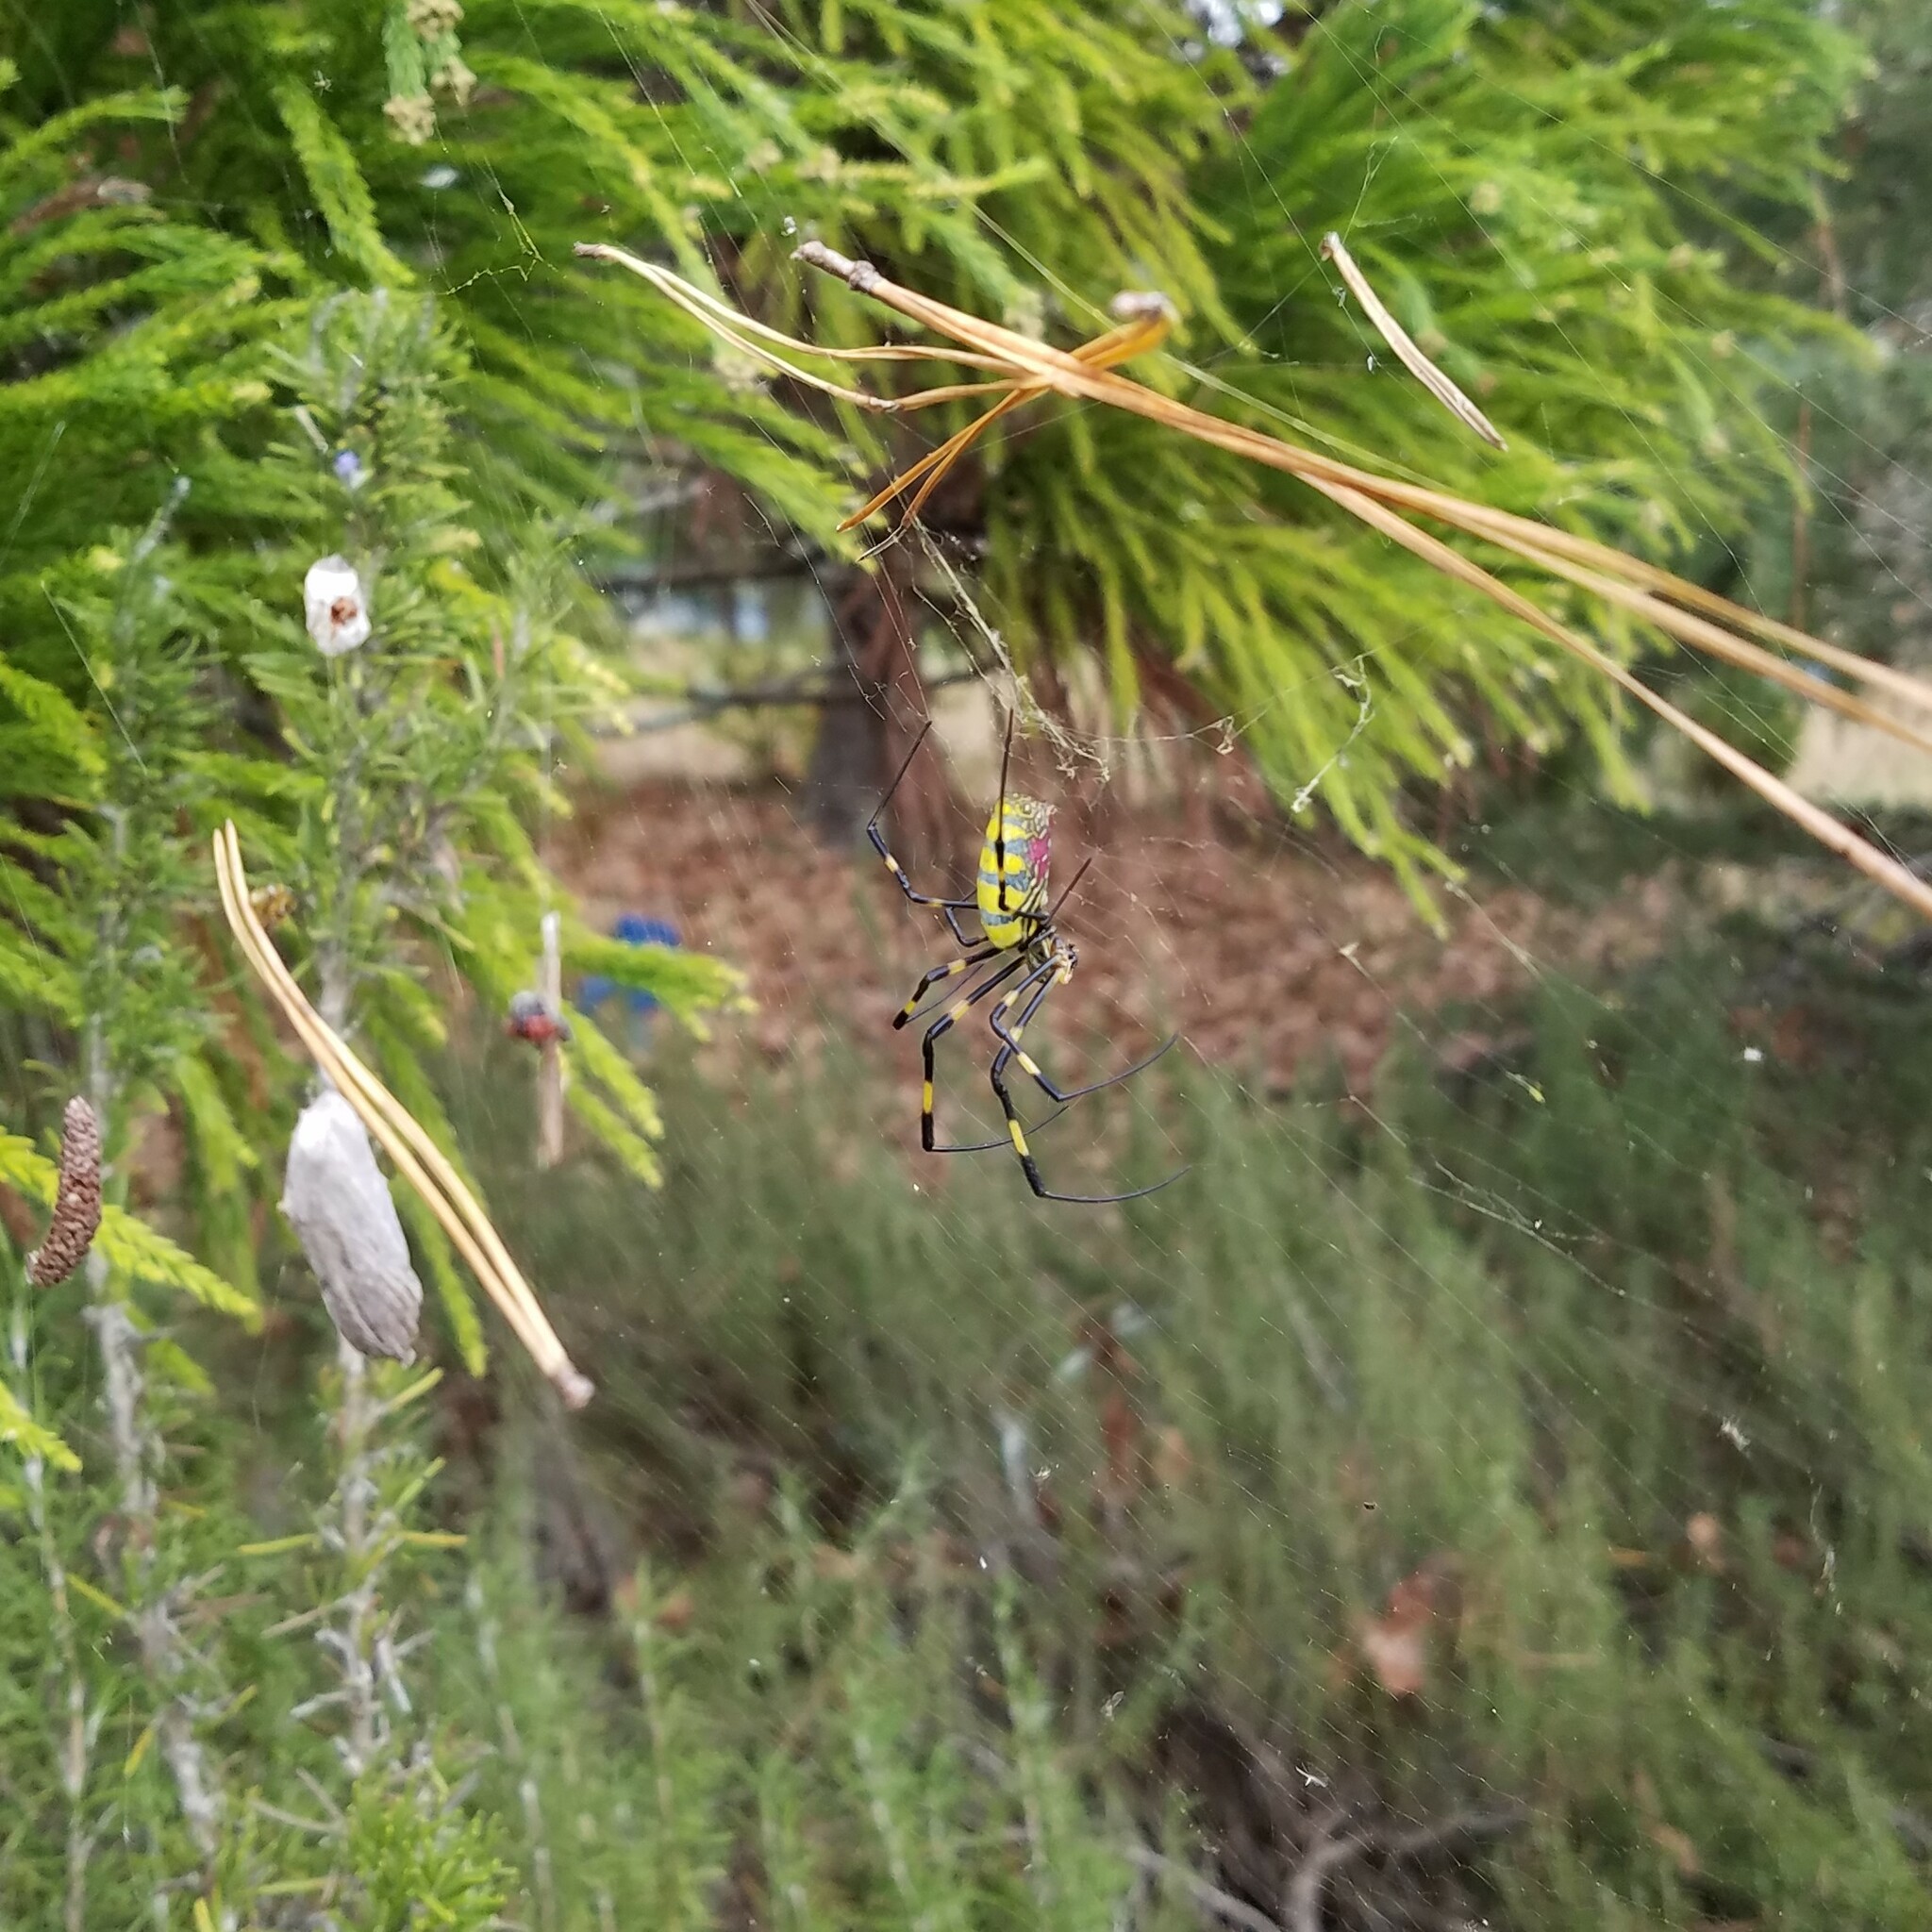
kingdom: Animalia
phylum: Arthropoda
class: Arachnida
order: Araneae
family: Araneidae
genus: Trichonephila
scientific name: Trichonephila clavata
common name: Jorō spider
